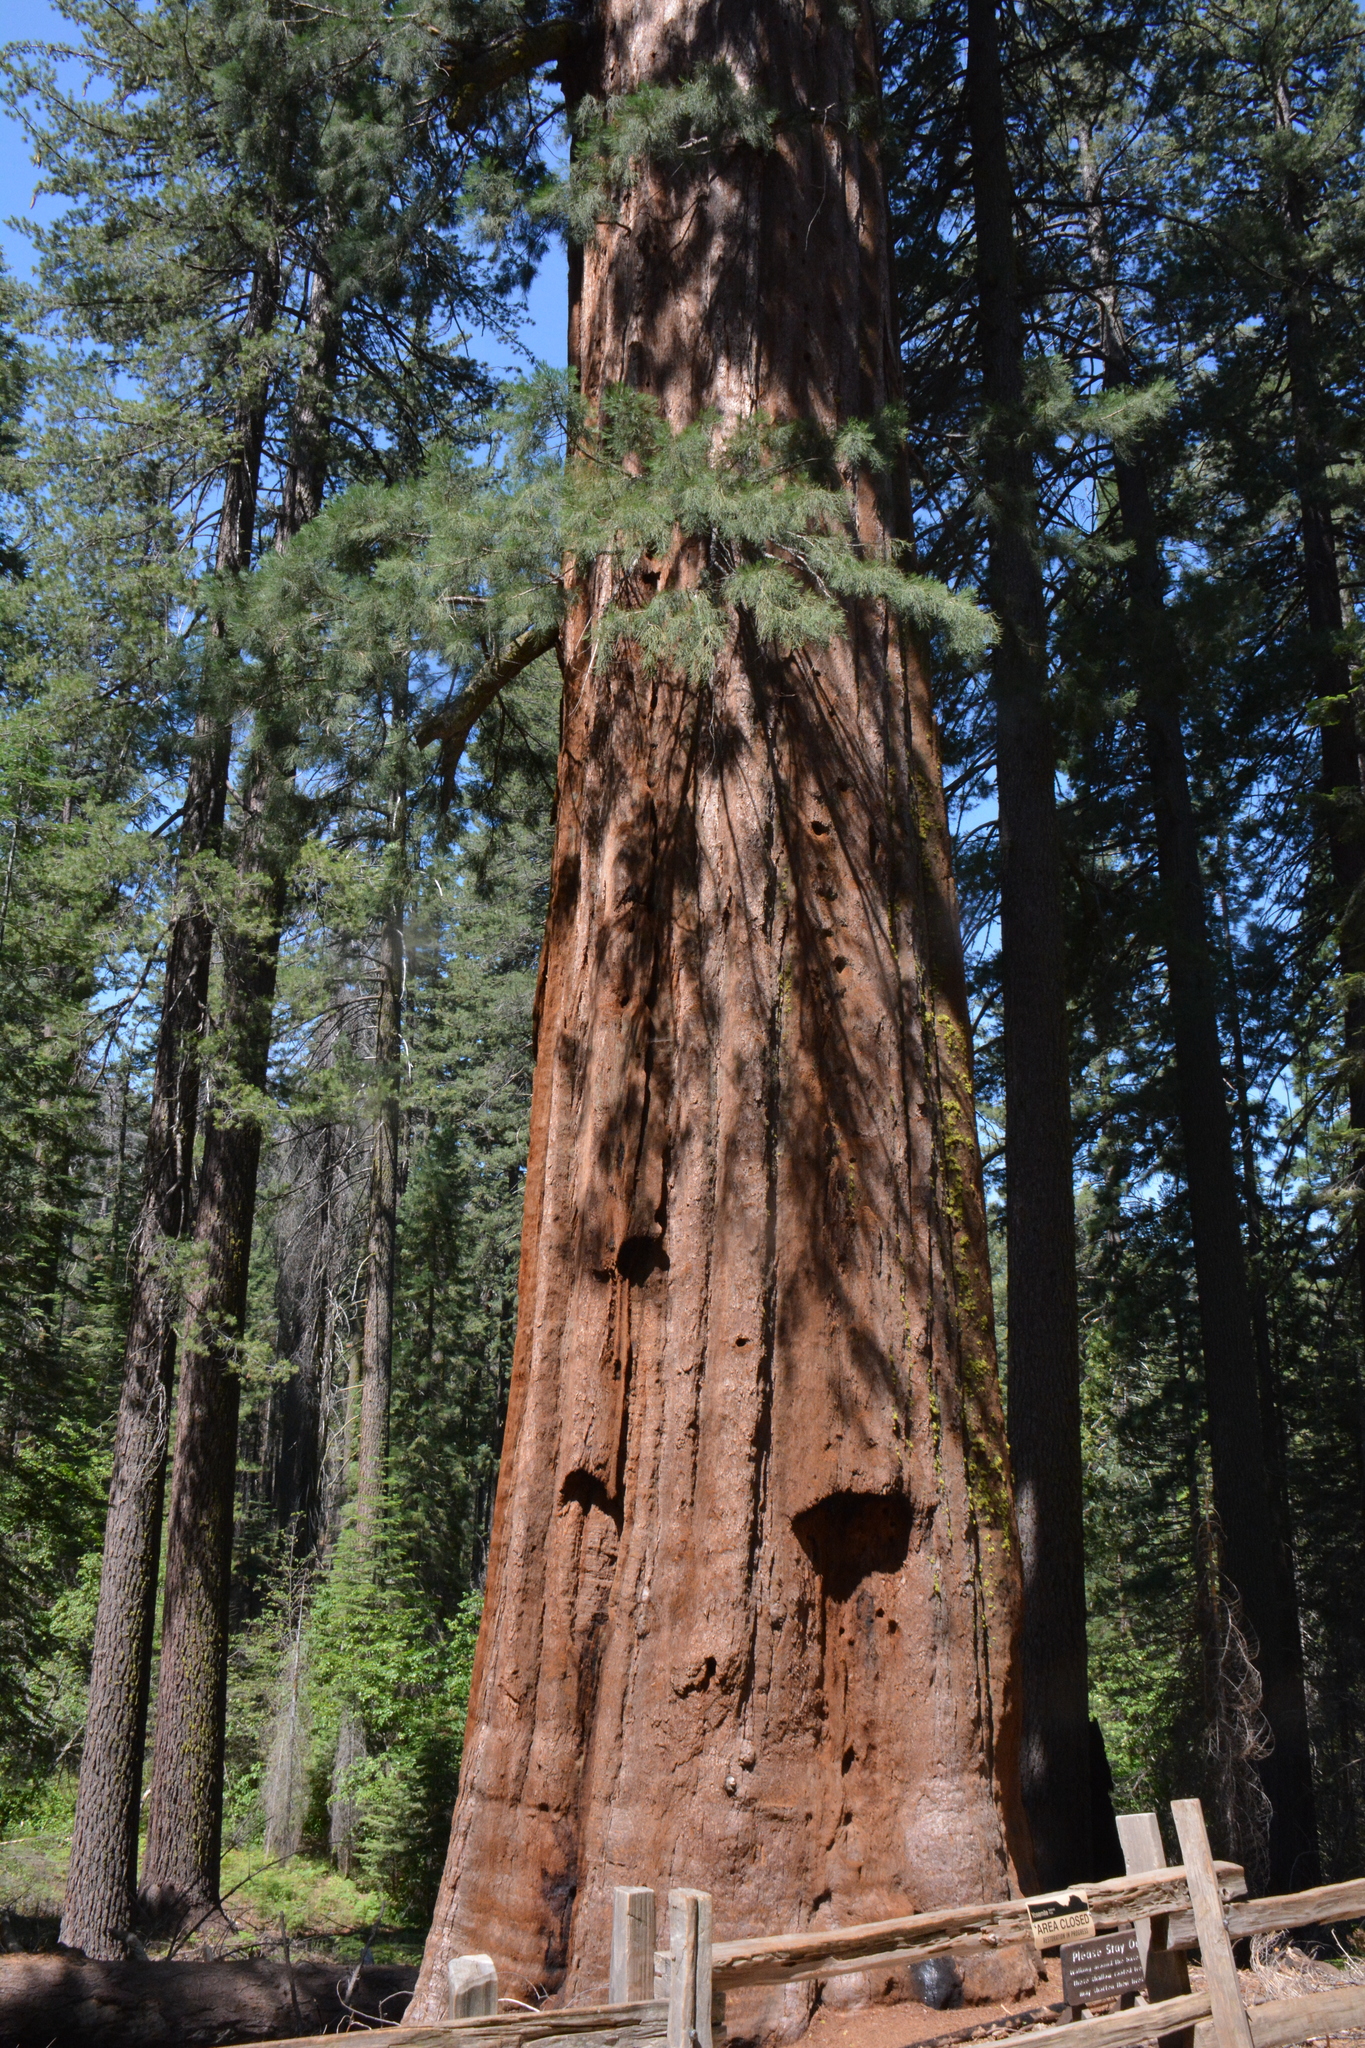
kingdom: Plantae
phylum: Tracheophyta
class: Pinopsida
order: Pinales
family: Cupressaceae
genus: Sequoiadendron
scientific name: Sequoiadendron giganteum
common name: Wellingtonia
